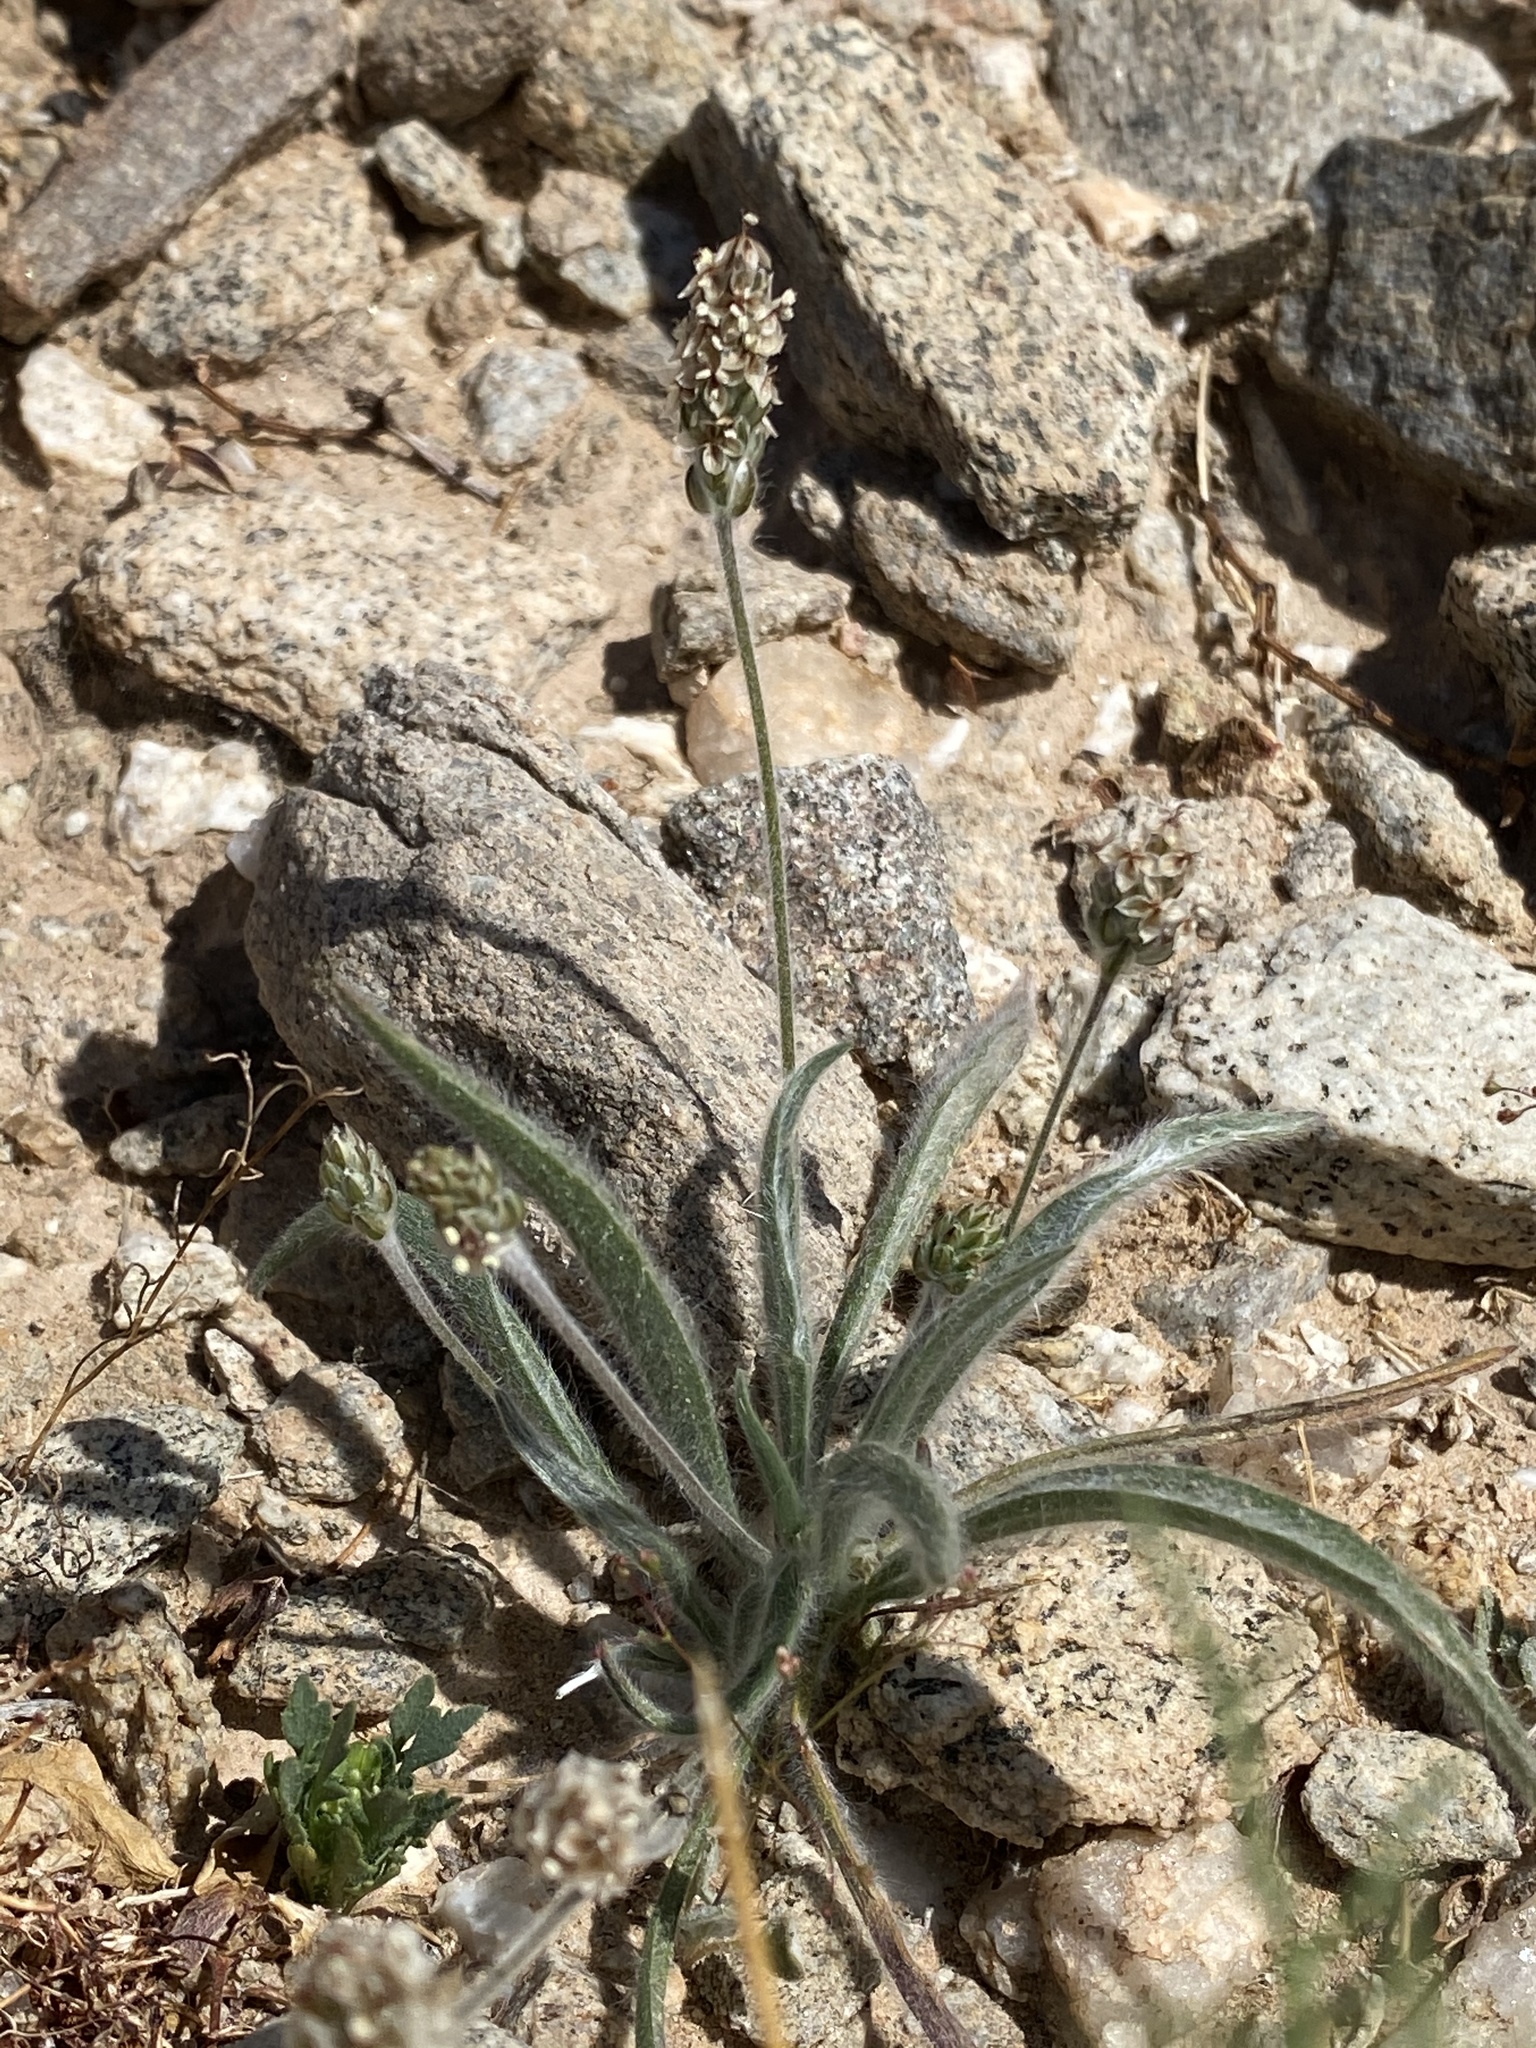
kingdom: Plantae
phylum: Tracheophyta
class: Magnoliopsida
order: Lamiales
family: Plantaginaceae
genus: Plantago
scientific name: Plantago ovata
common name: Blond plantain
